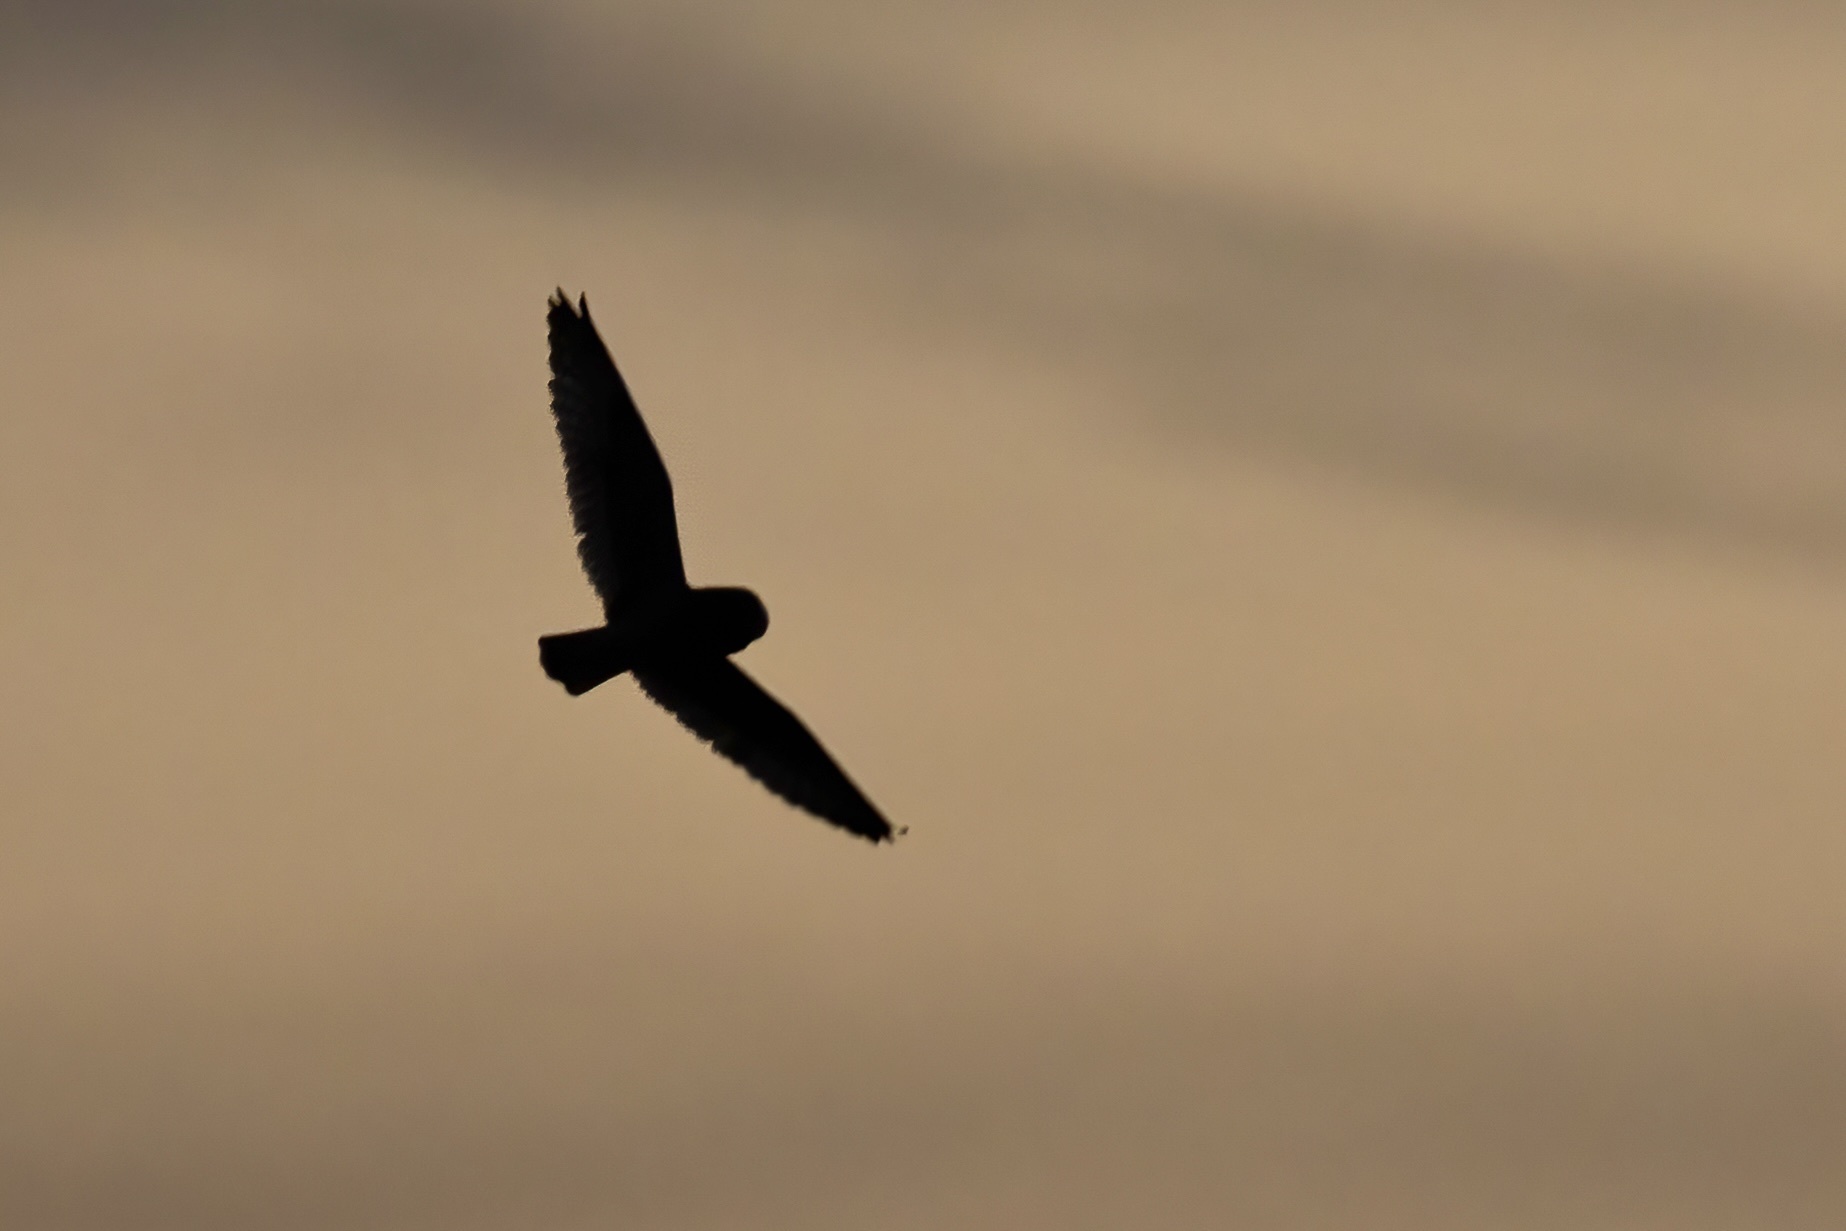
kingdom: Animalia
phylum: Chordata
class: Aves
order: Strigiformes
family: Strigidae
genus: Asio
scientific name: Asio flammeus
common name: Short-eared owl
